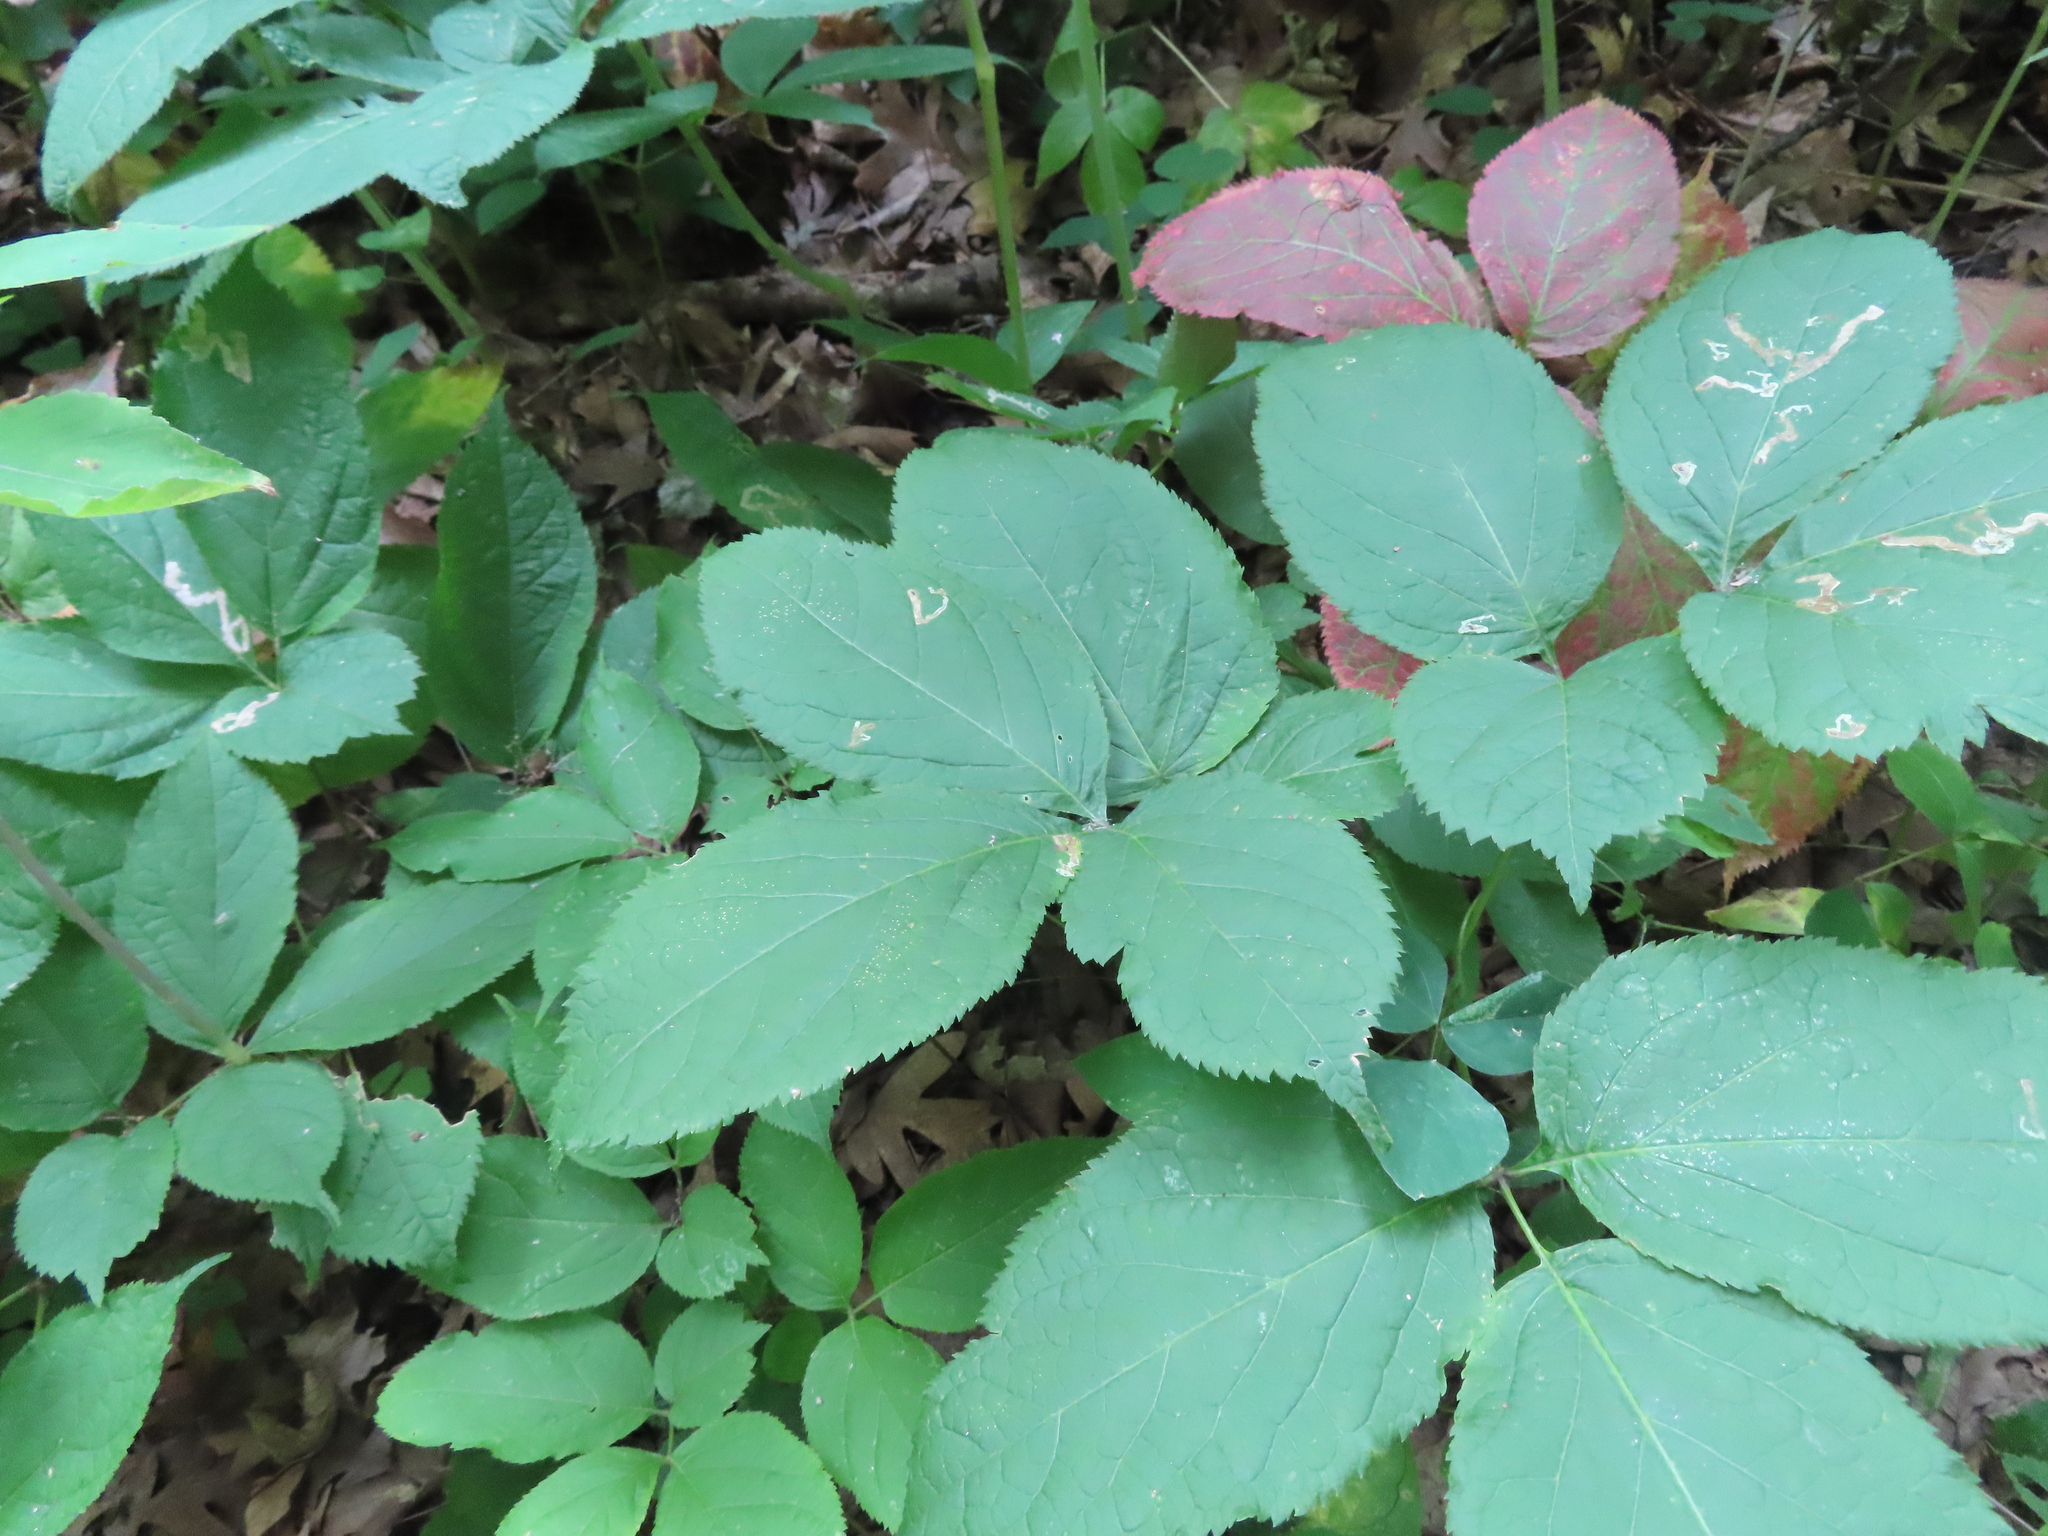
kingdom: Plantae
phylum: Tracheophyta
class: Magnoliopsida
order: Apiales
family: Araliaceae
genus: Aralia
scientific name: Aralia nudicaulis
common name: Wild sarsaparilla
